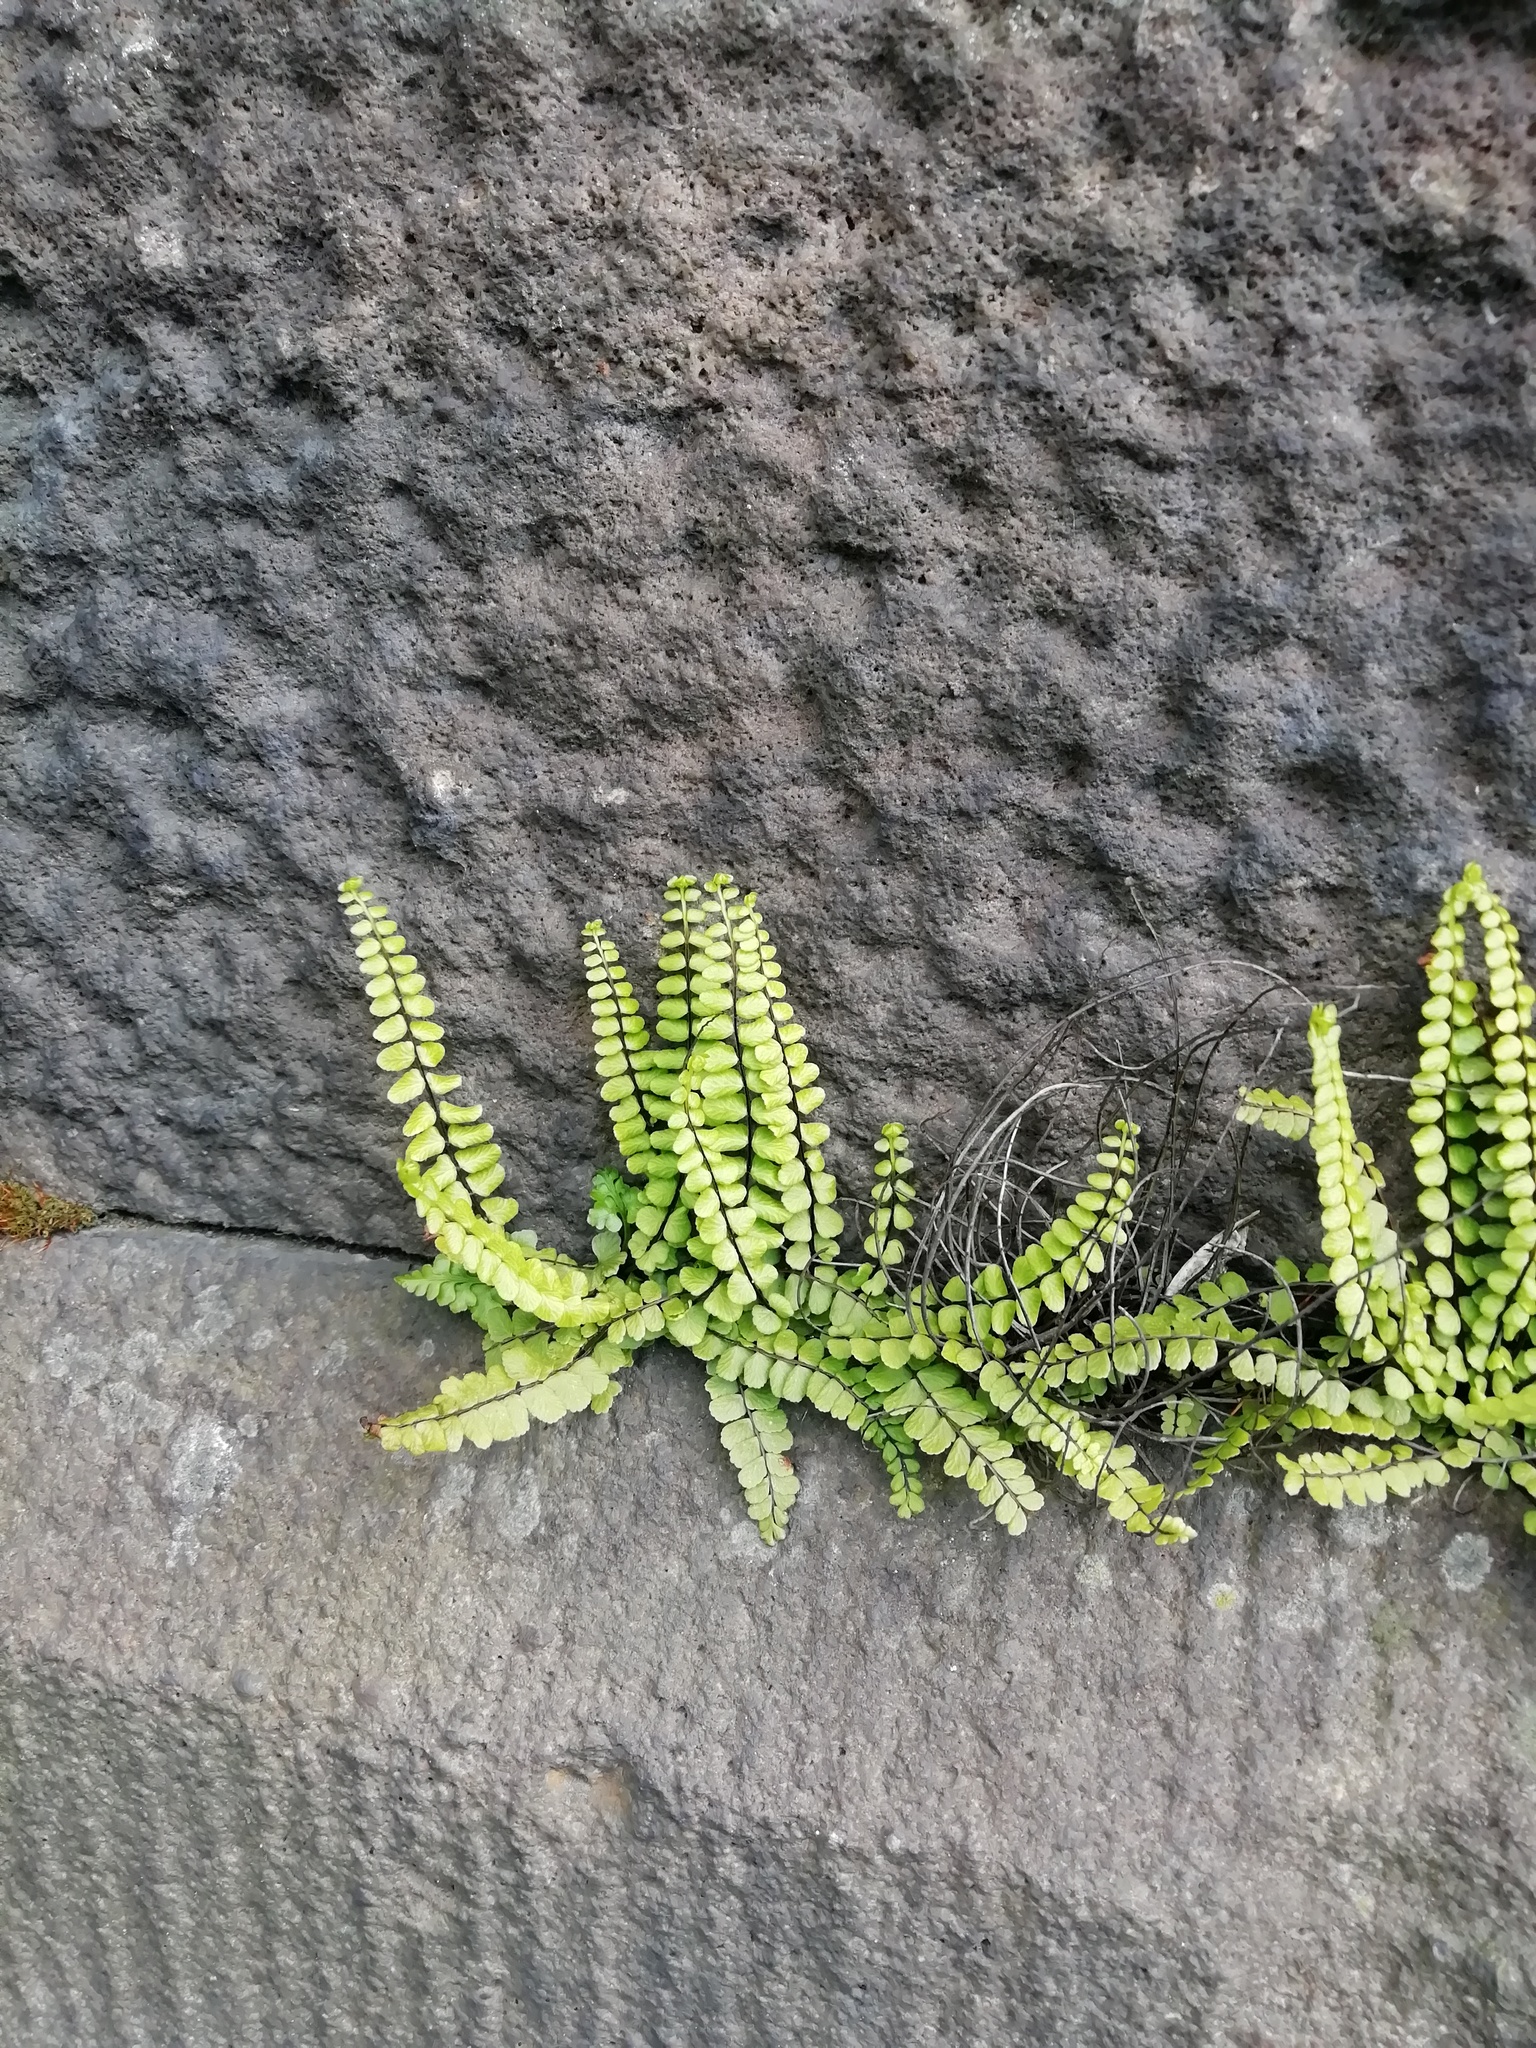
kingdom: Plantae
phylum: Tracheophyta
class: Polypodiopsida
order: Polypodiales
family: Aspleniaceae
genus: Asplenium
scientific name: Asplenium trichomanes
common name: Maidenhair spleenwort
